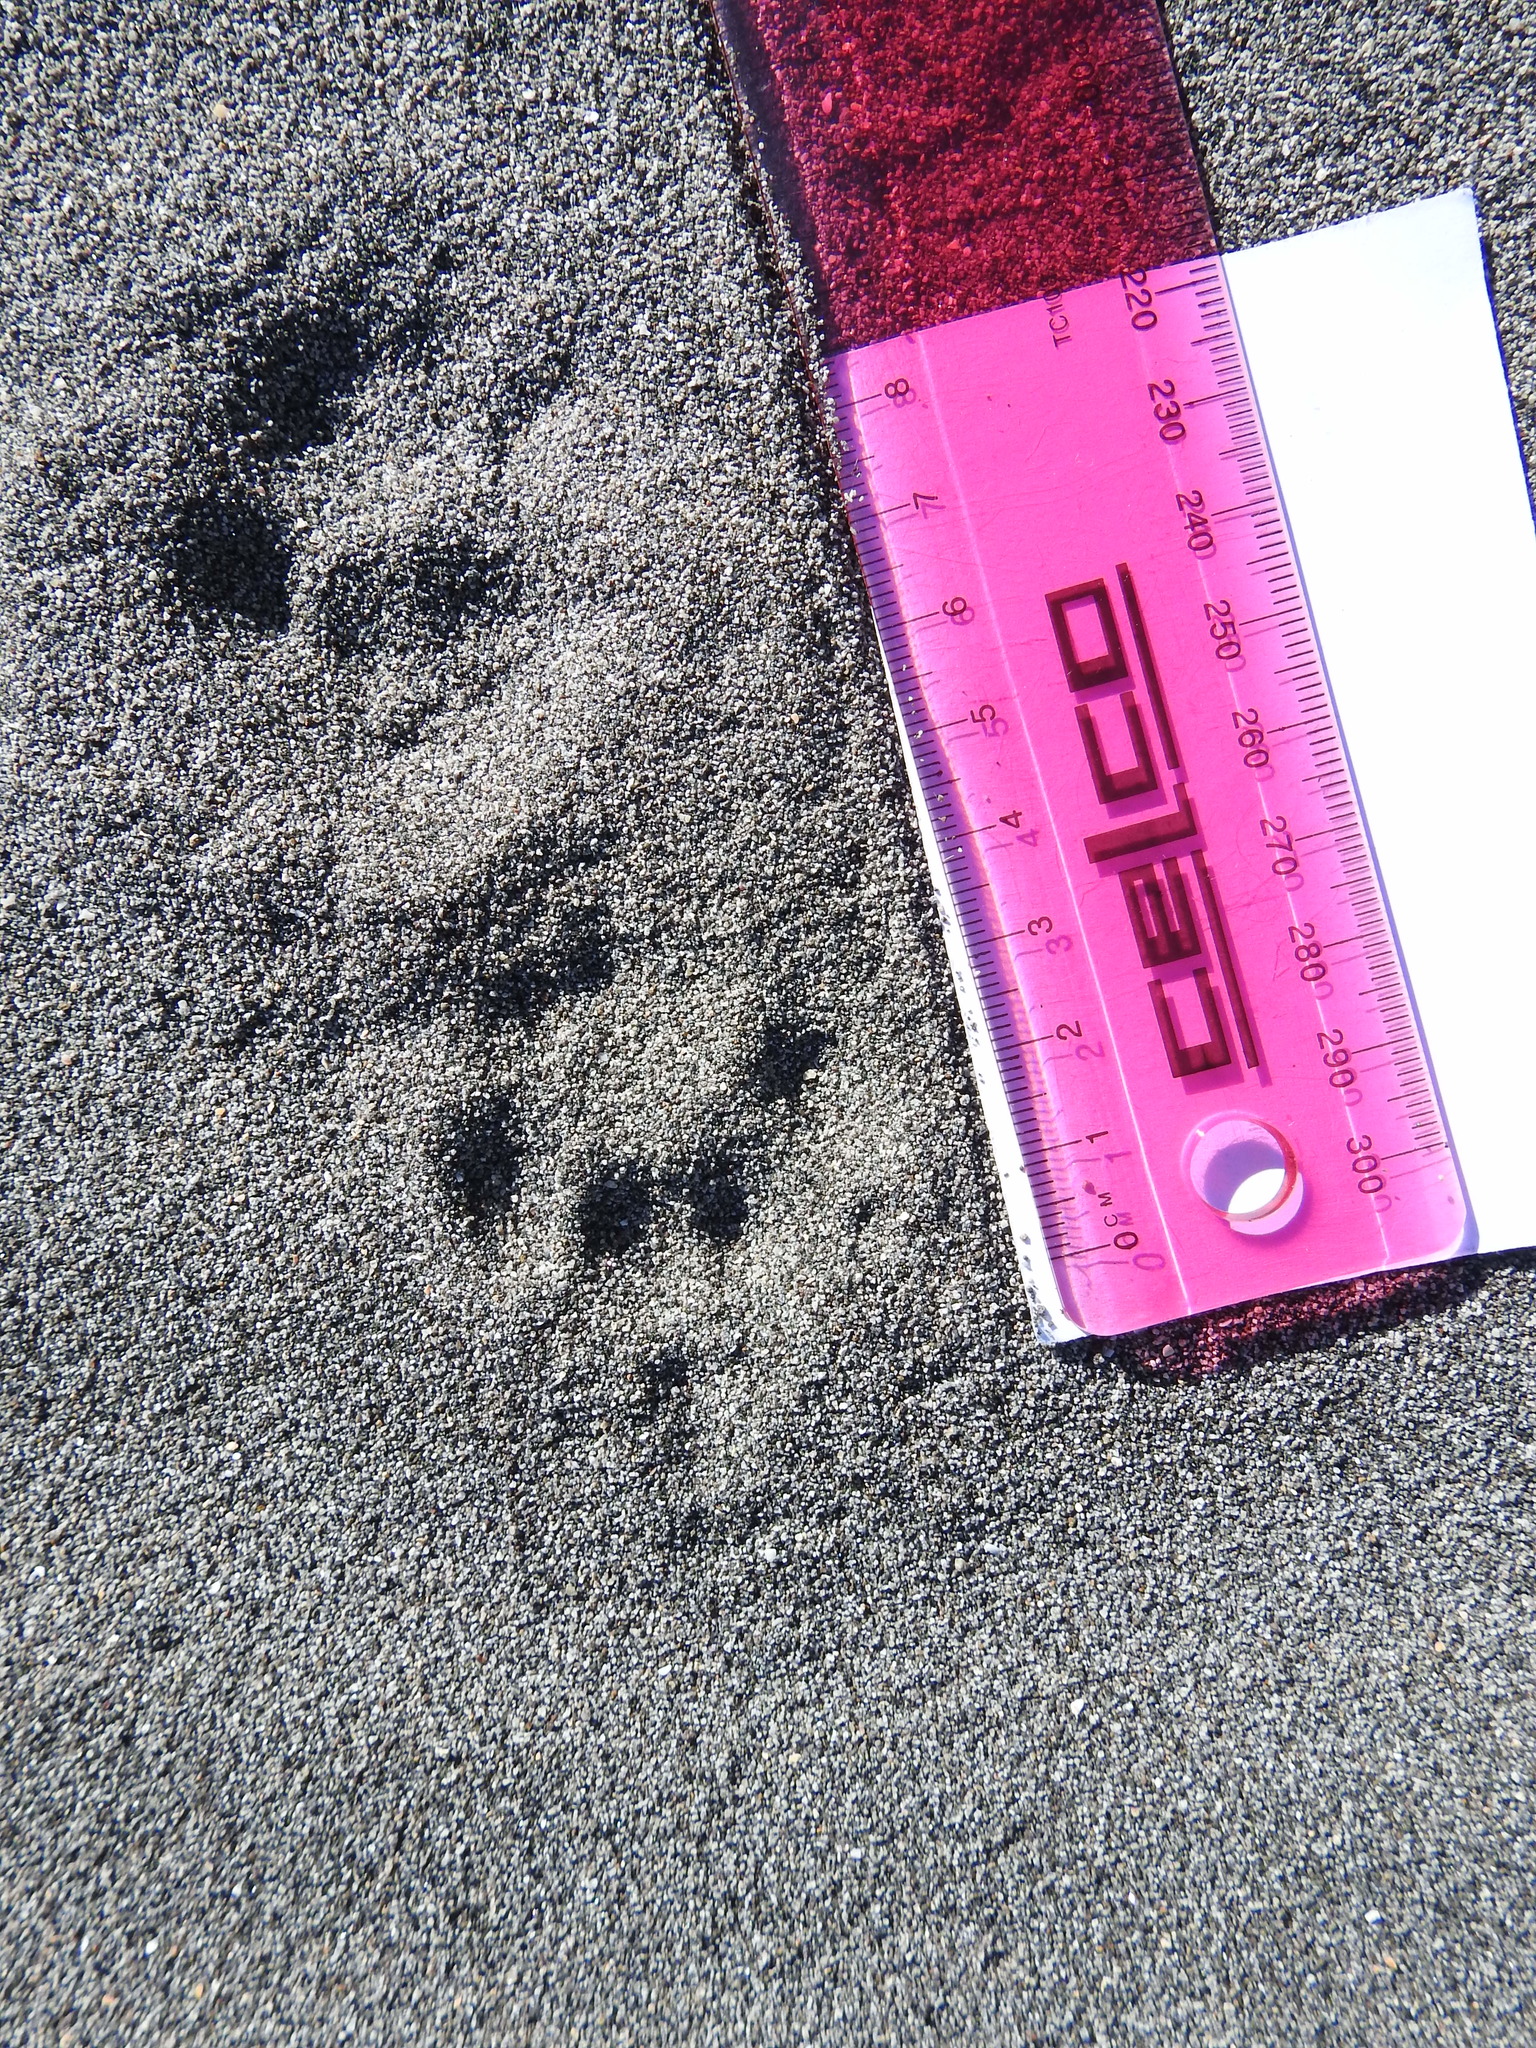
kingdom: Animalia
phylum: Chordata
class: Mammalia
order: Diprotodontia
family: Phalangeridae
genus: Trichosurus
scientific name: Trichosurus vulpecula
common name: Common brushtail
